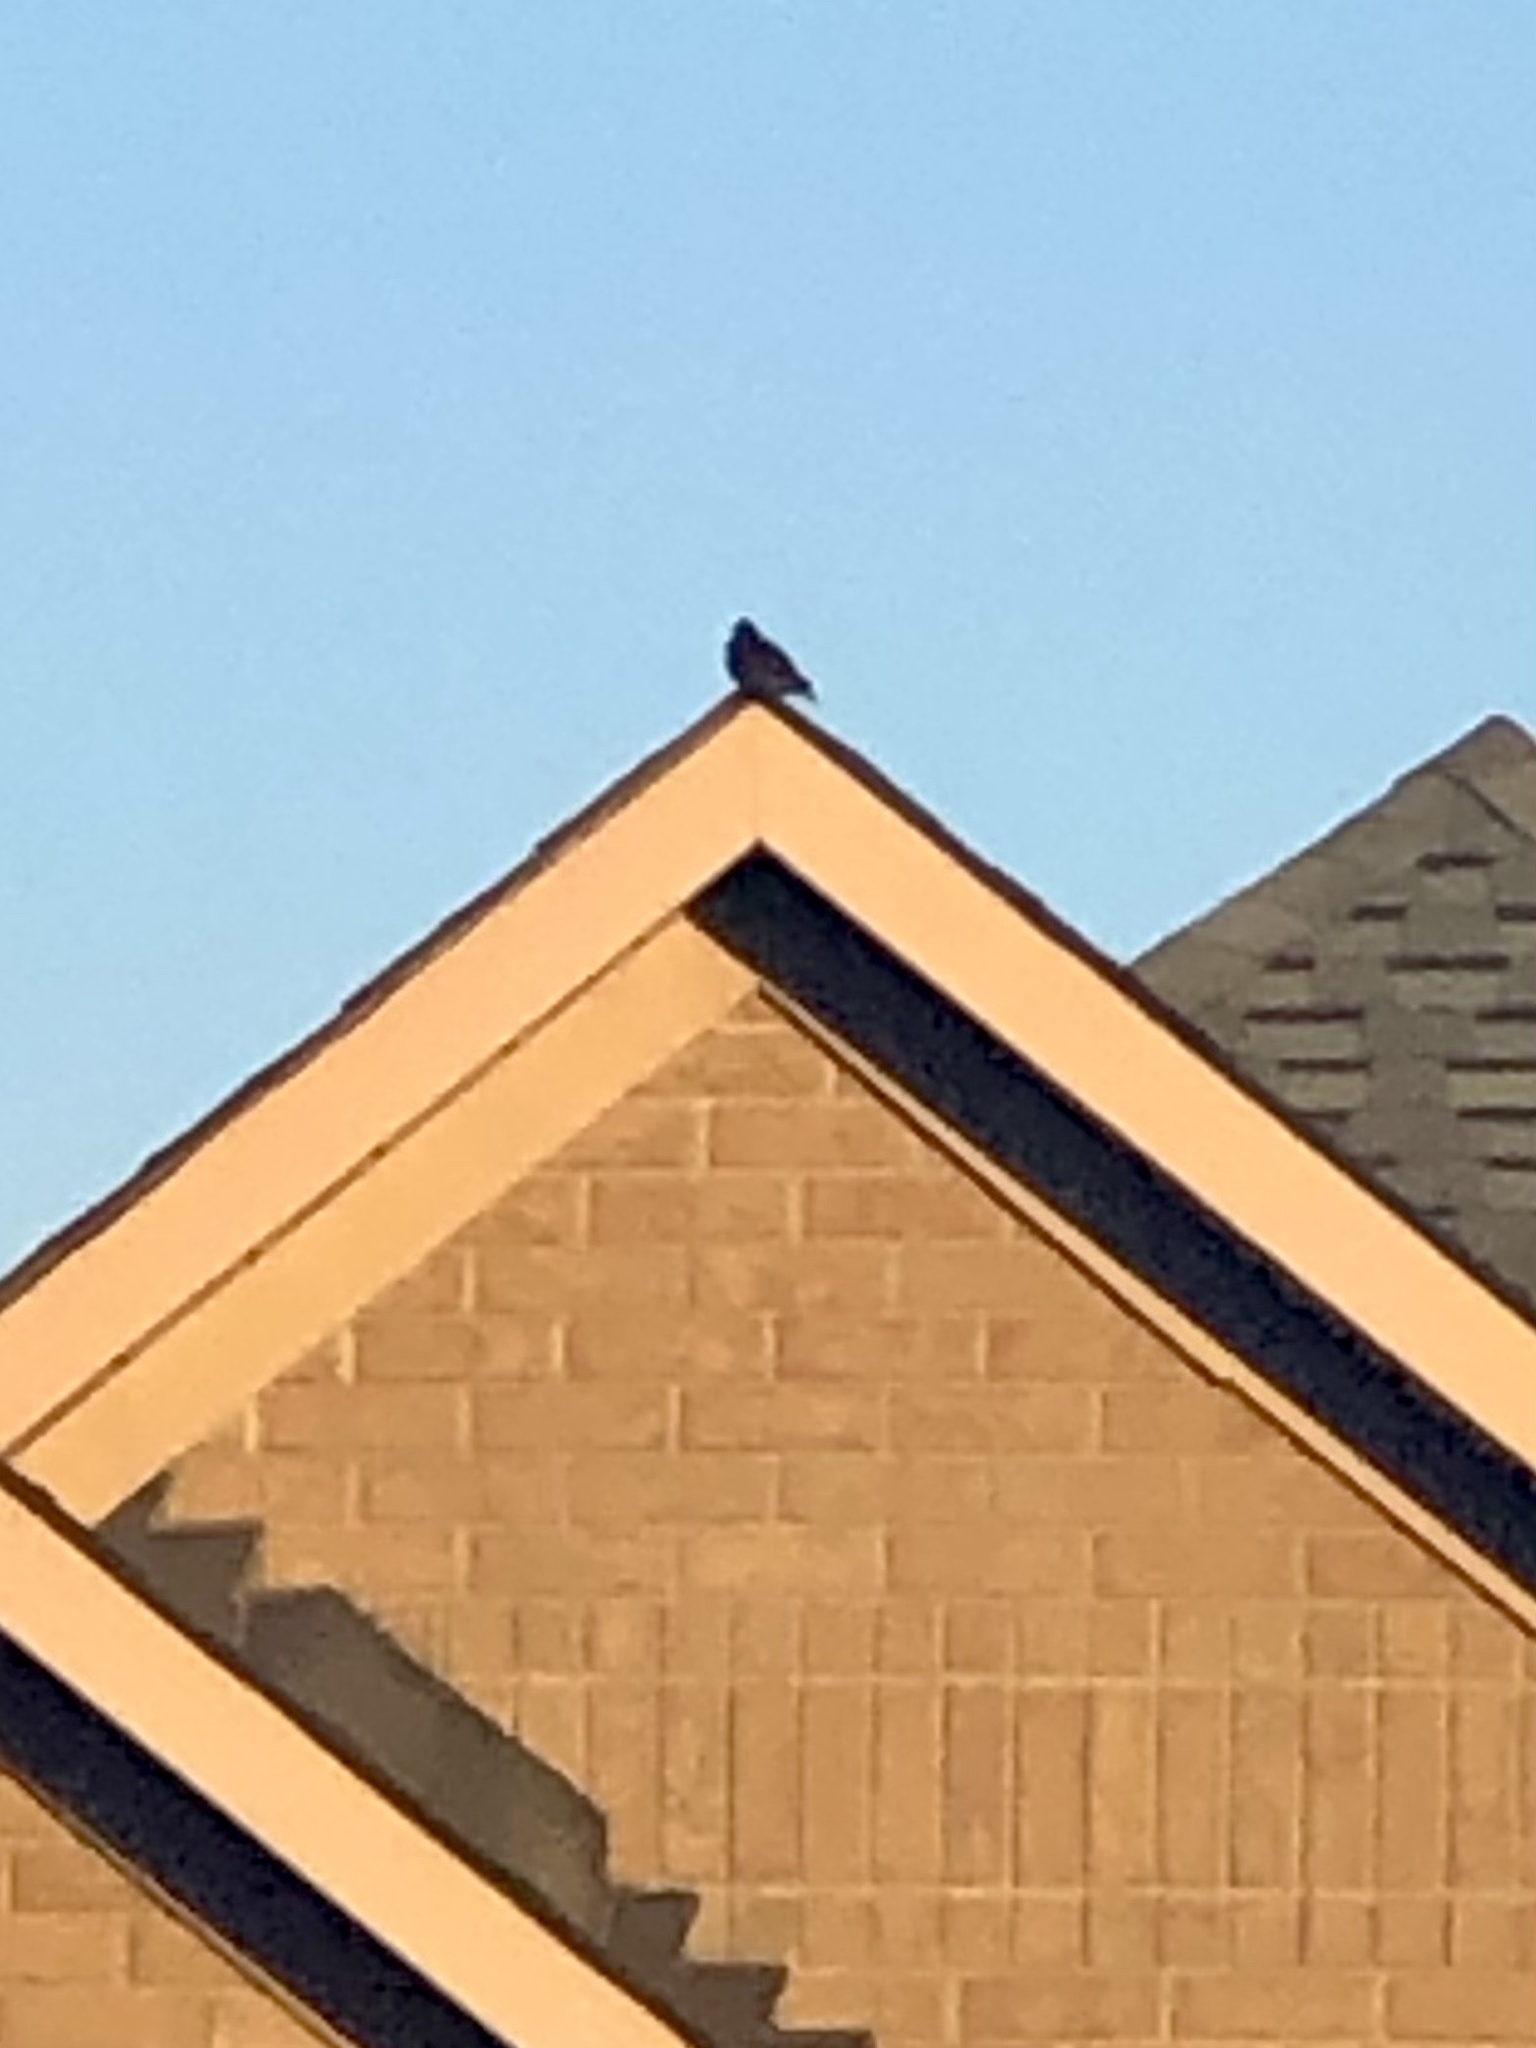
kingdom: Animalia
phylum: Chordata
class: Aves
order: Passeriformes
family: Sturnidae
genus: Sturnus
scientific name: Sturnus vulgaris
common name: Common starling
